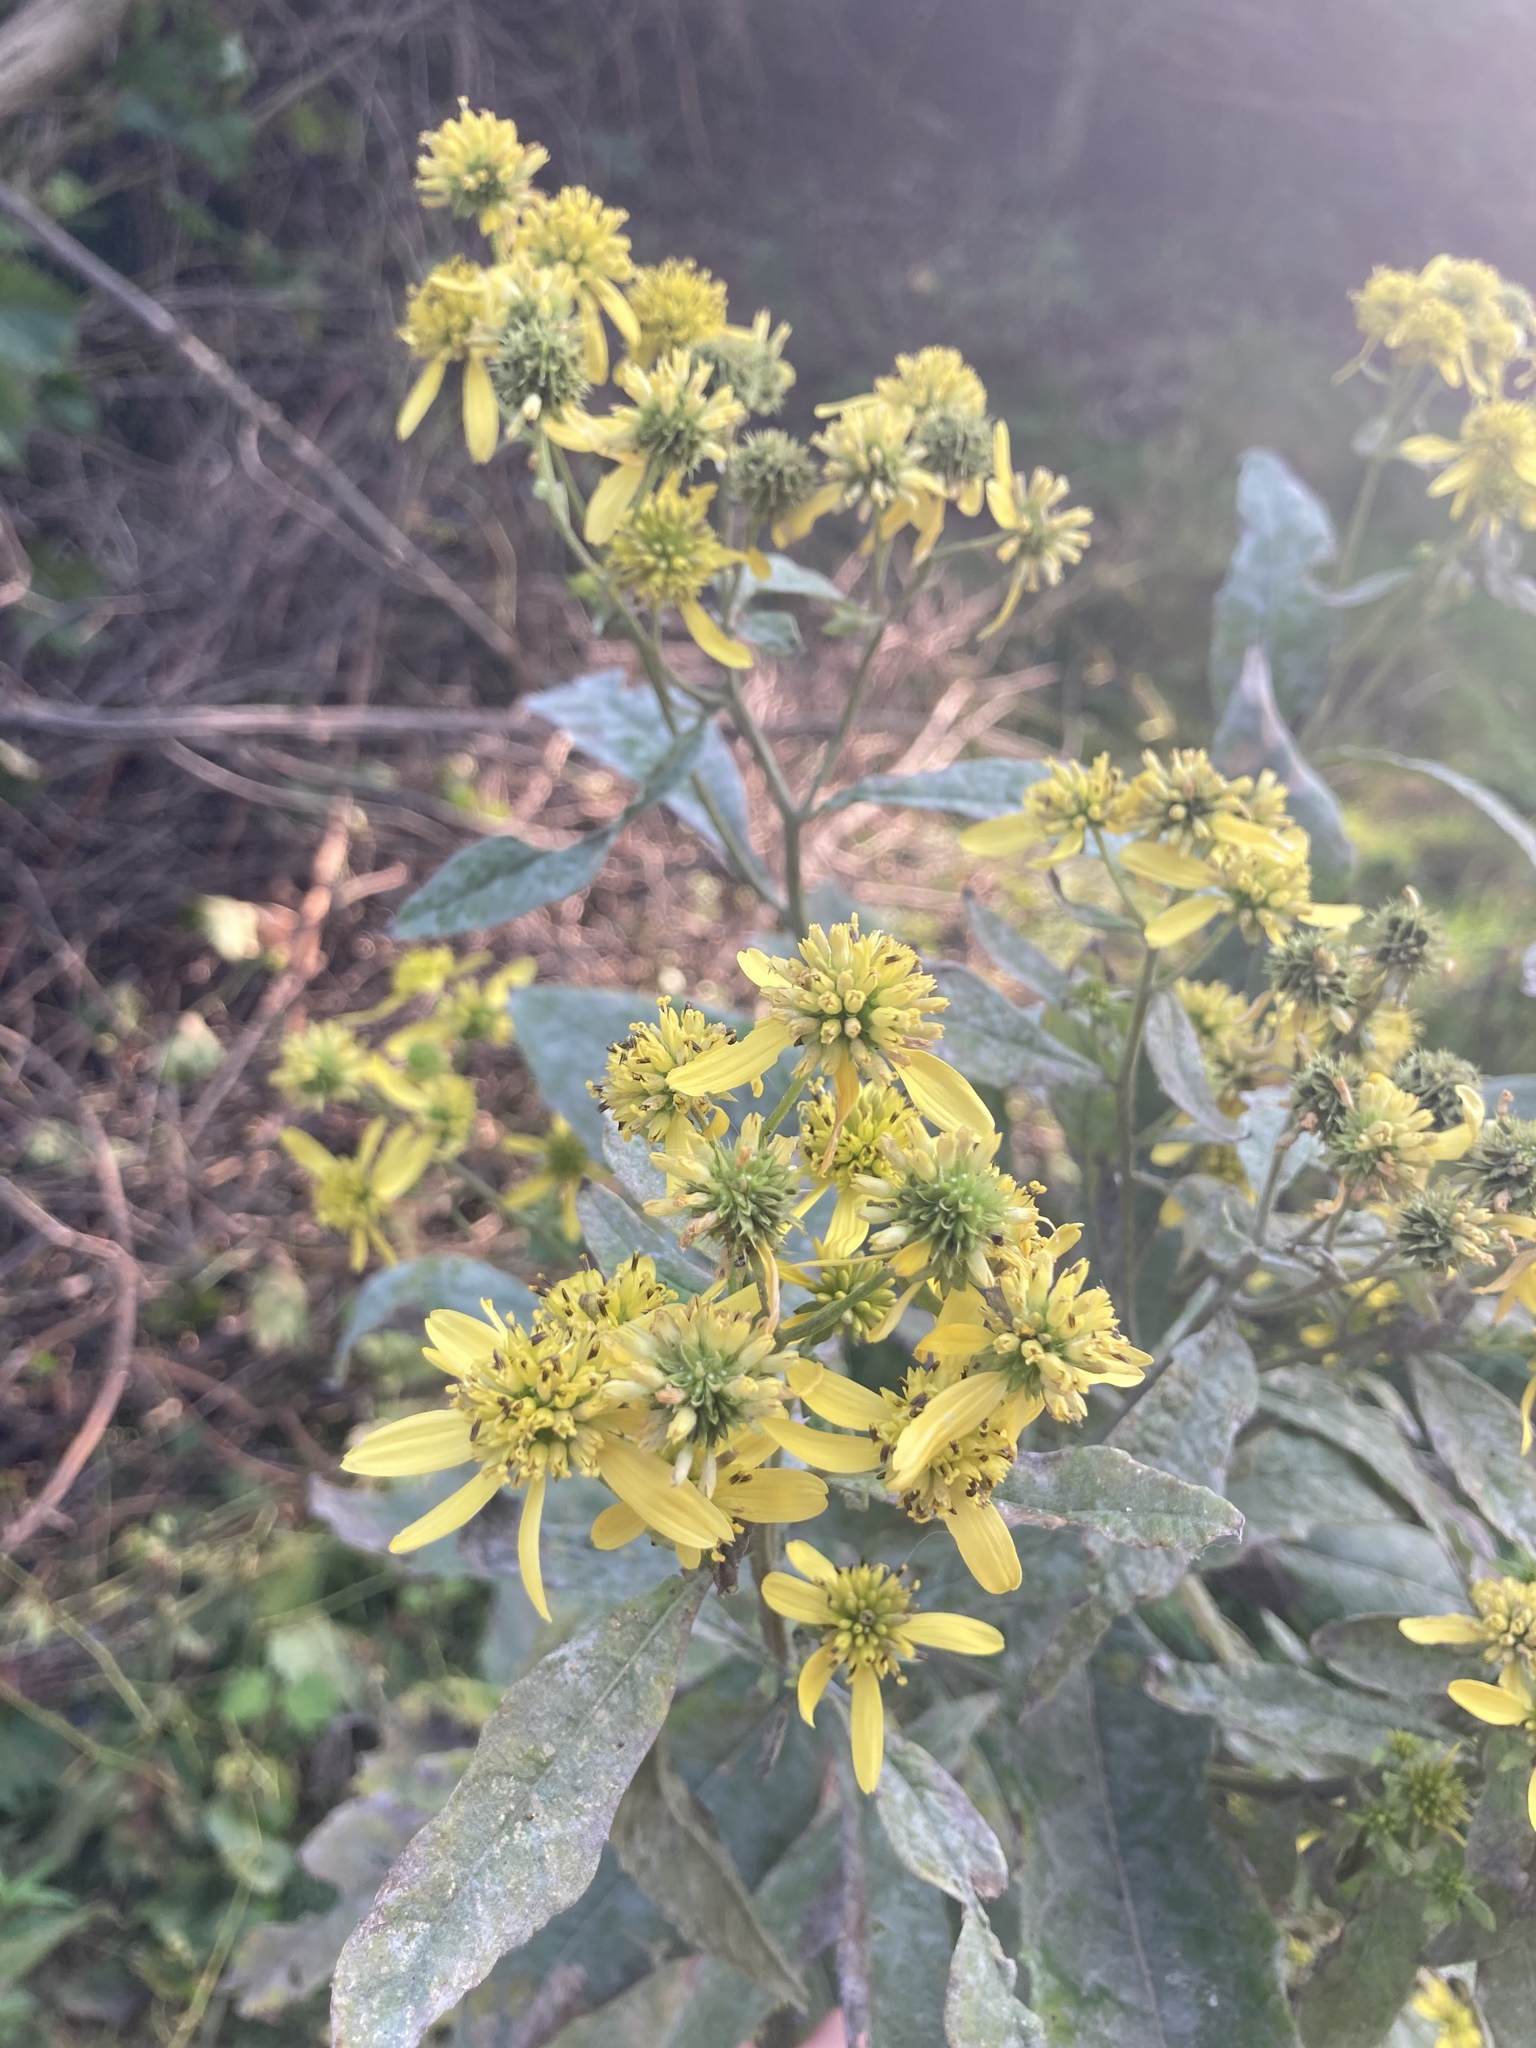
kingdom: Plantae
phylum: Tracheophyta
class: Magnoliopsida
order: Asterales
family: Asteraceae
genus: Verbesina
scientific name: Verbesina alternifolia
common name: Wingstem
